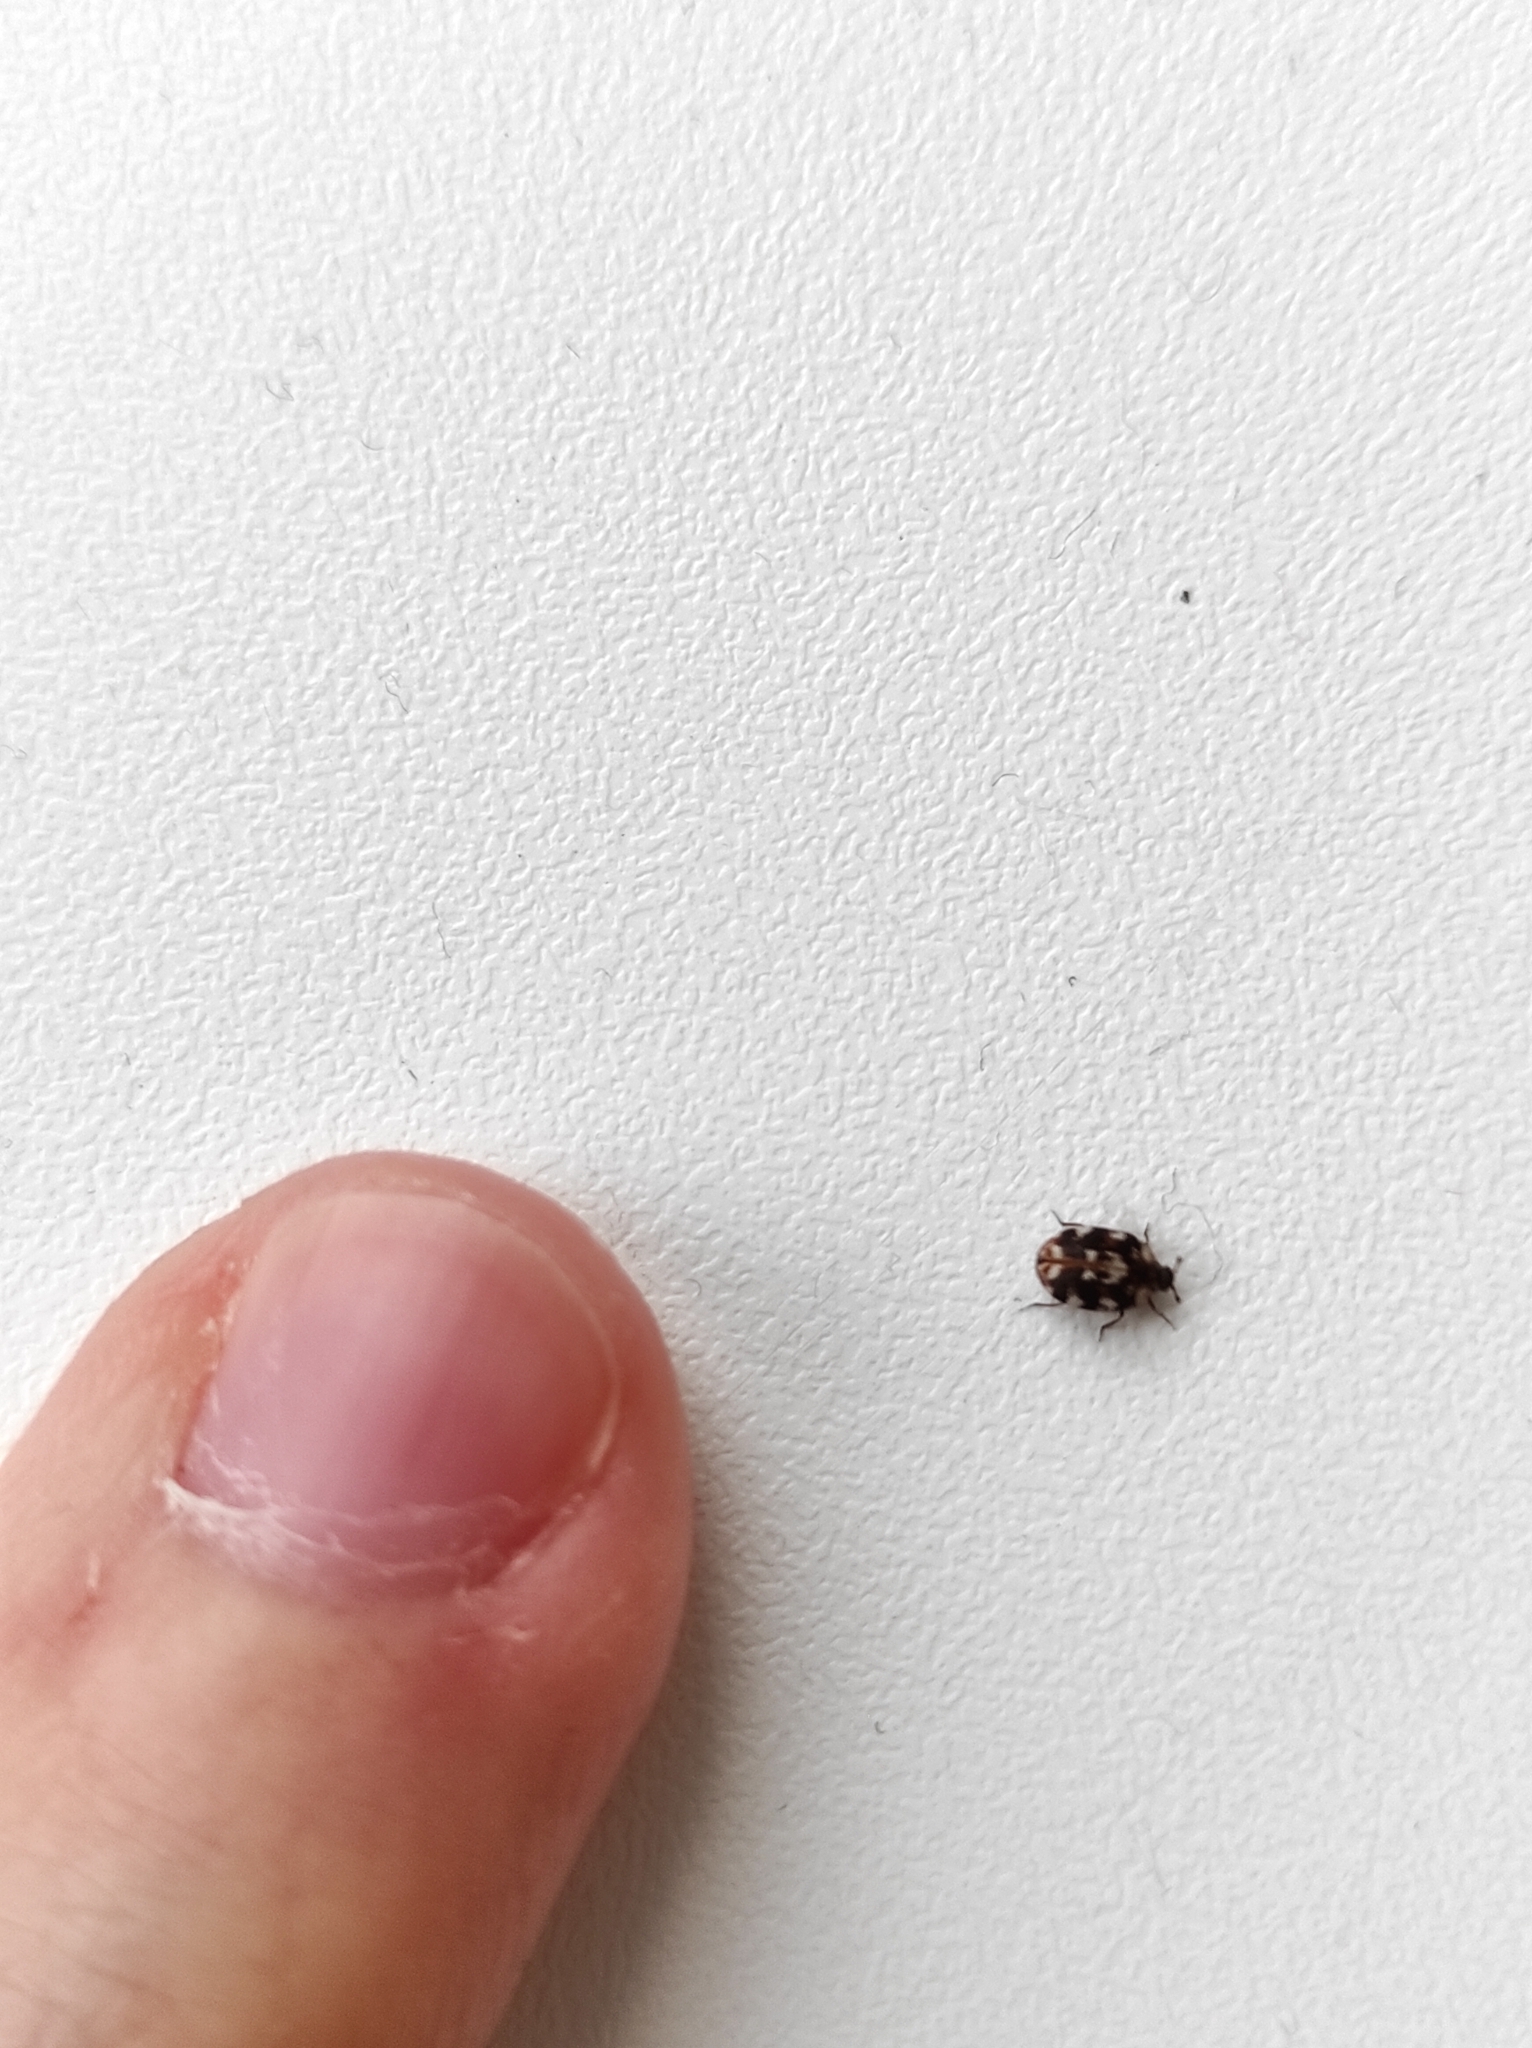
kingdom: Animalia
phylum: Arthropoda
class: Insecta
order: Coleoptera
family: Dermestidae
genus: Anthrenus
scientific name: Anthrenus lepidus
